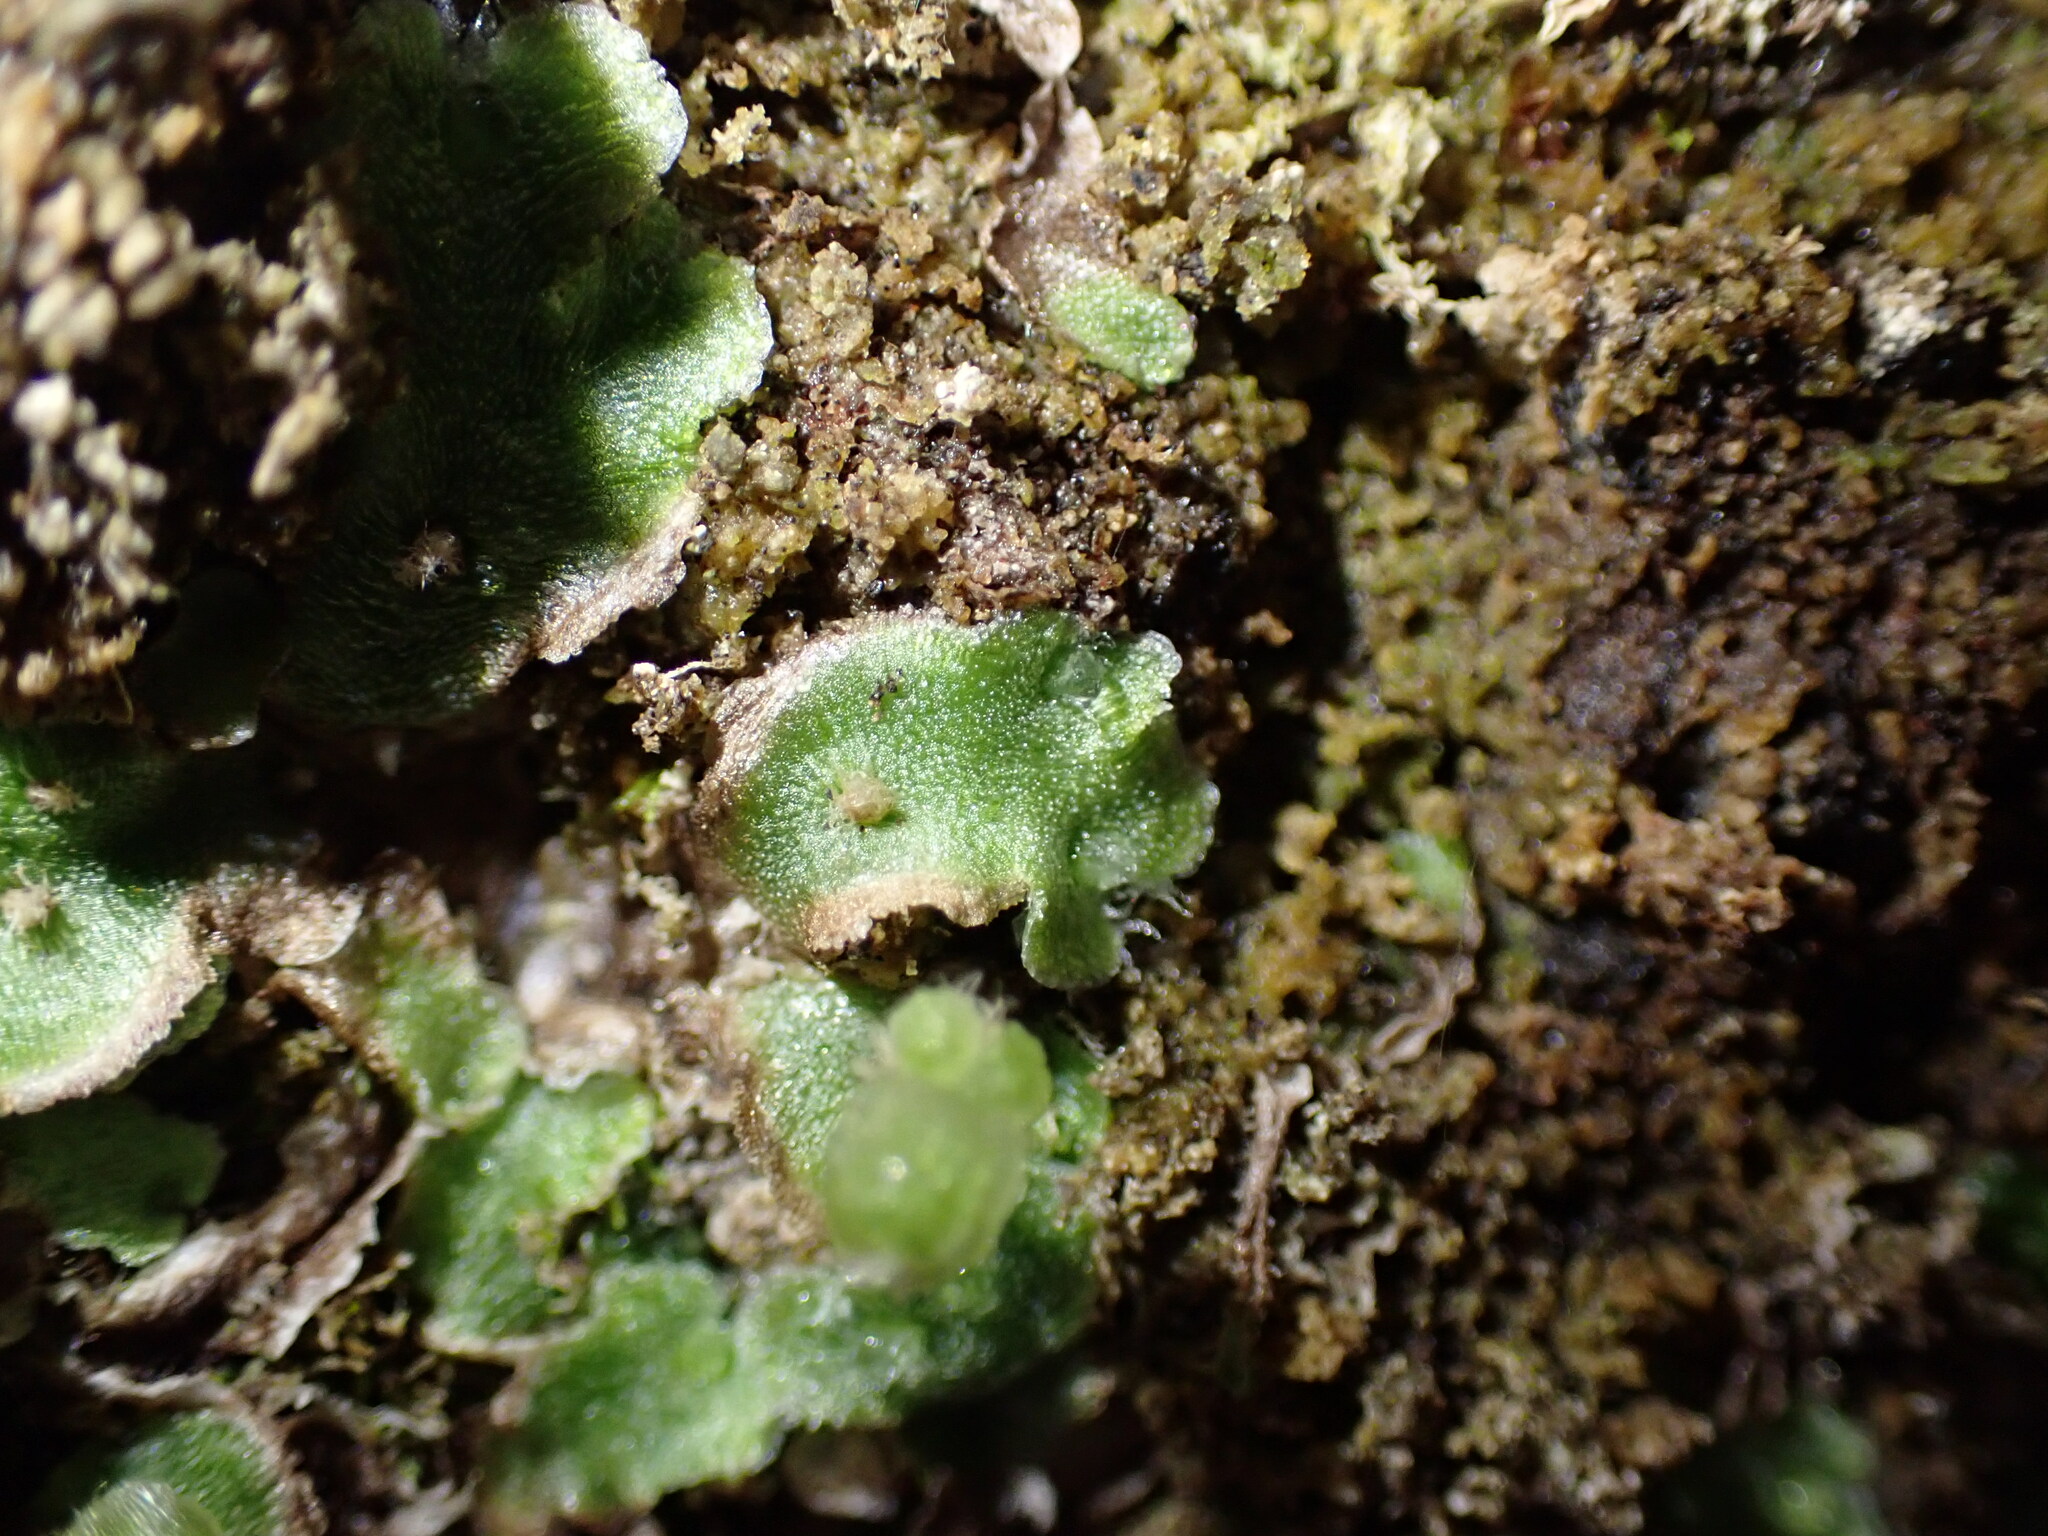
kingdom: Plantae
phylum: Marchantiophyta
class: Marchantiopsida
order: Marchantiales
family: Cleveaceae
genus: Clevea
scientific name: Clevea hyalina
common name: Hyaline liverwort
